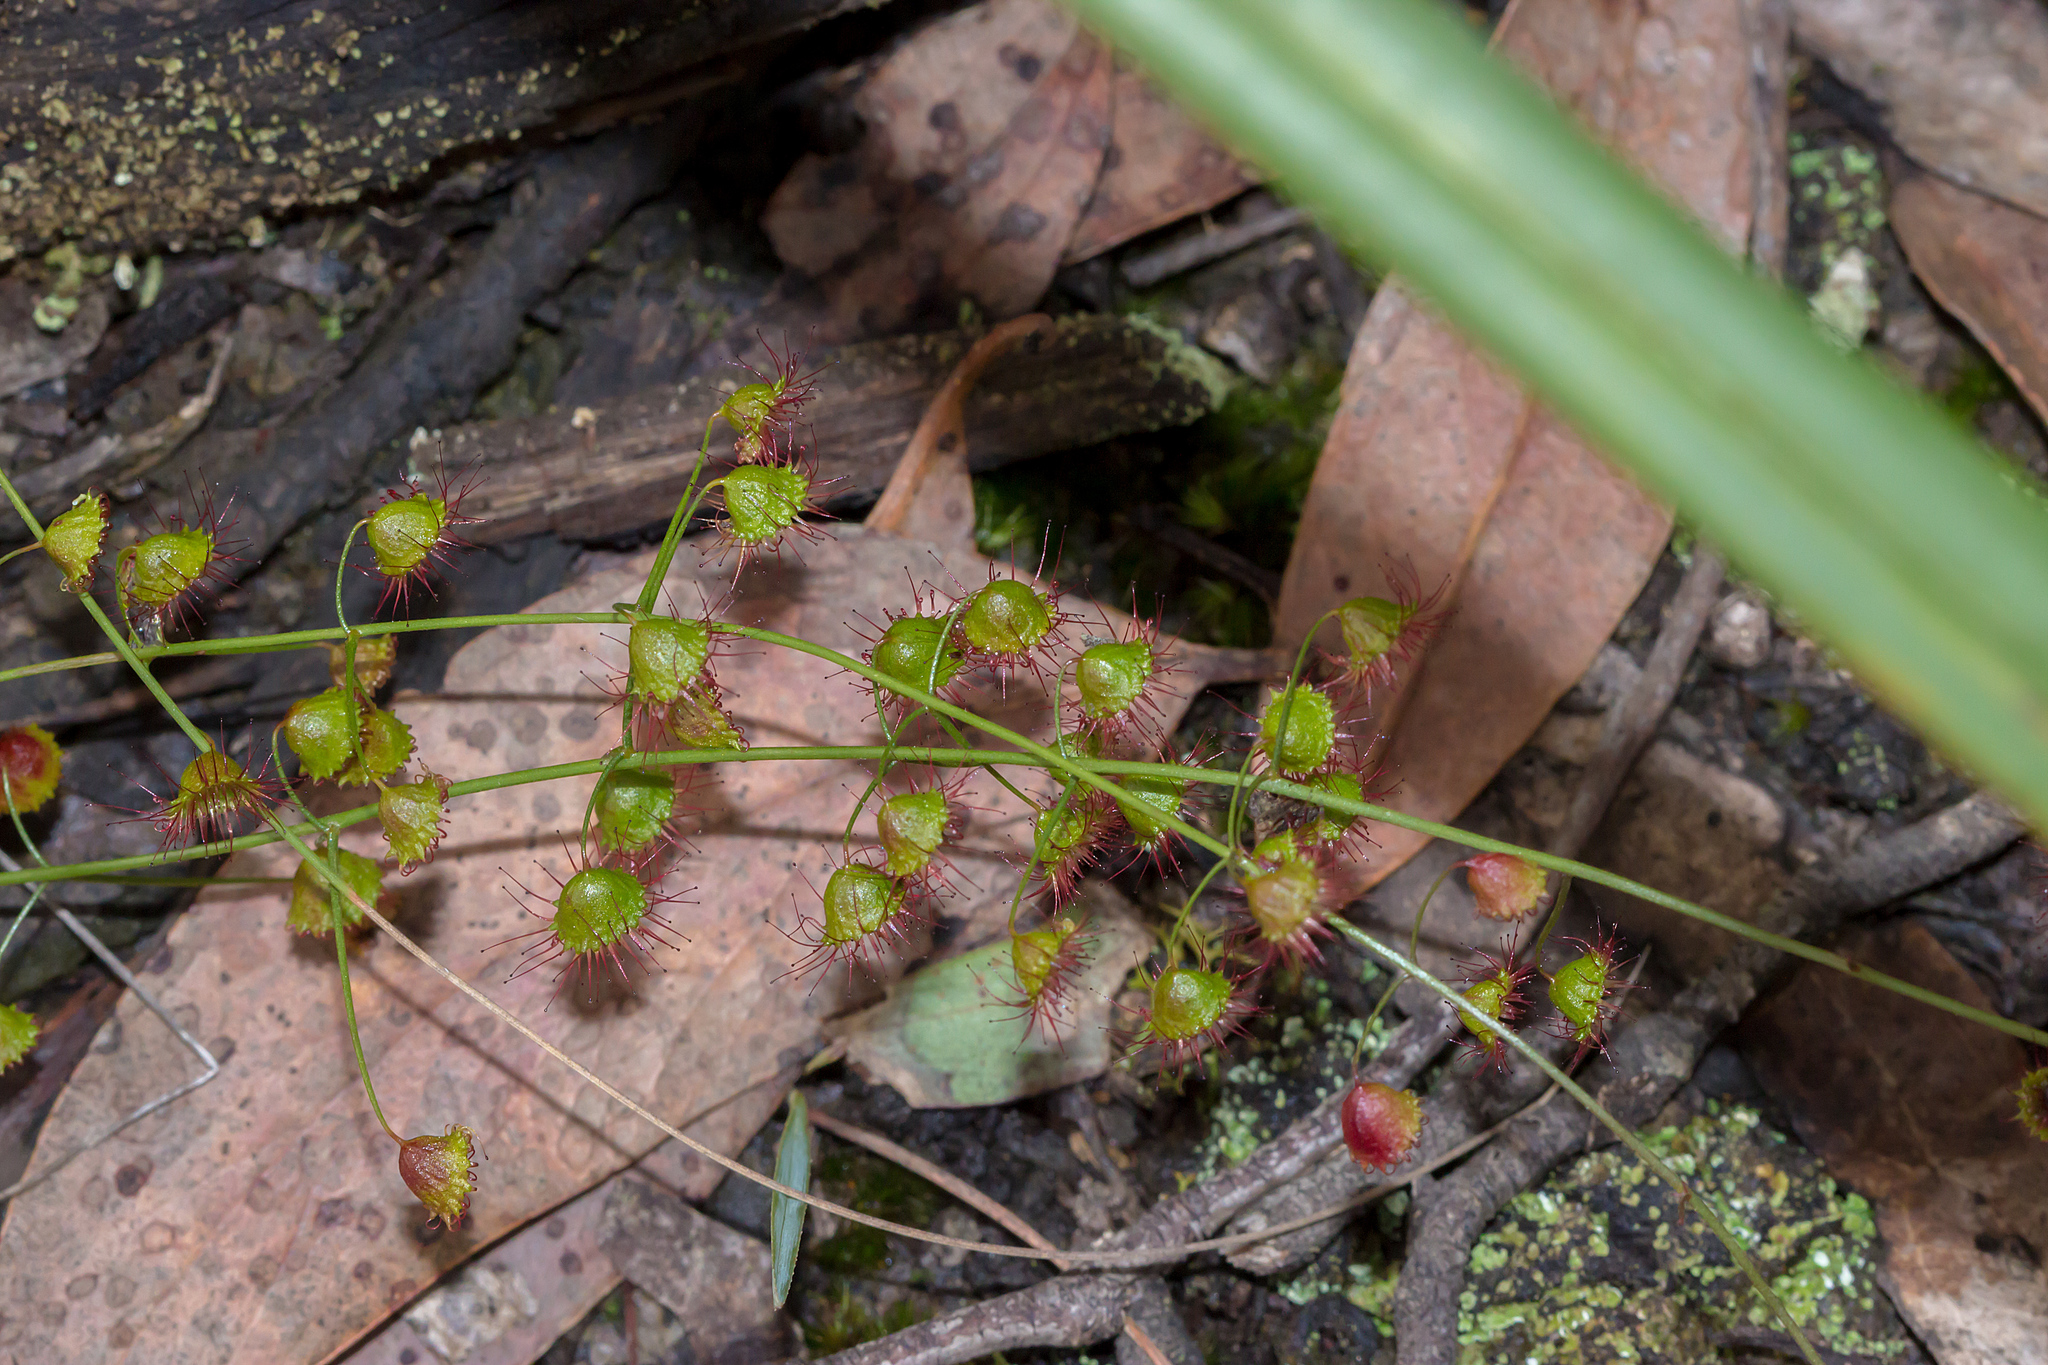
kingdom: Plantae
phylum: Tracheophyta
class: Magnoliopsida
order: Caryophyllales
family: Droseraceae
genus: Drosera
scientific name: Drosera planchonii
